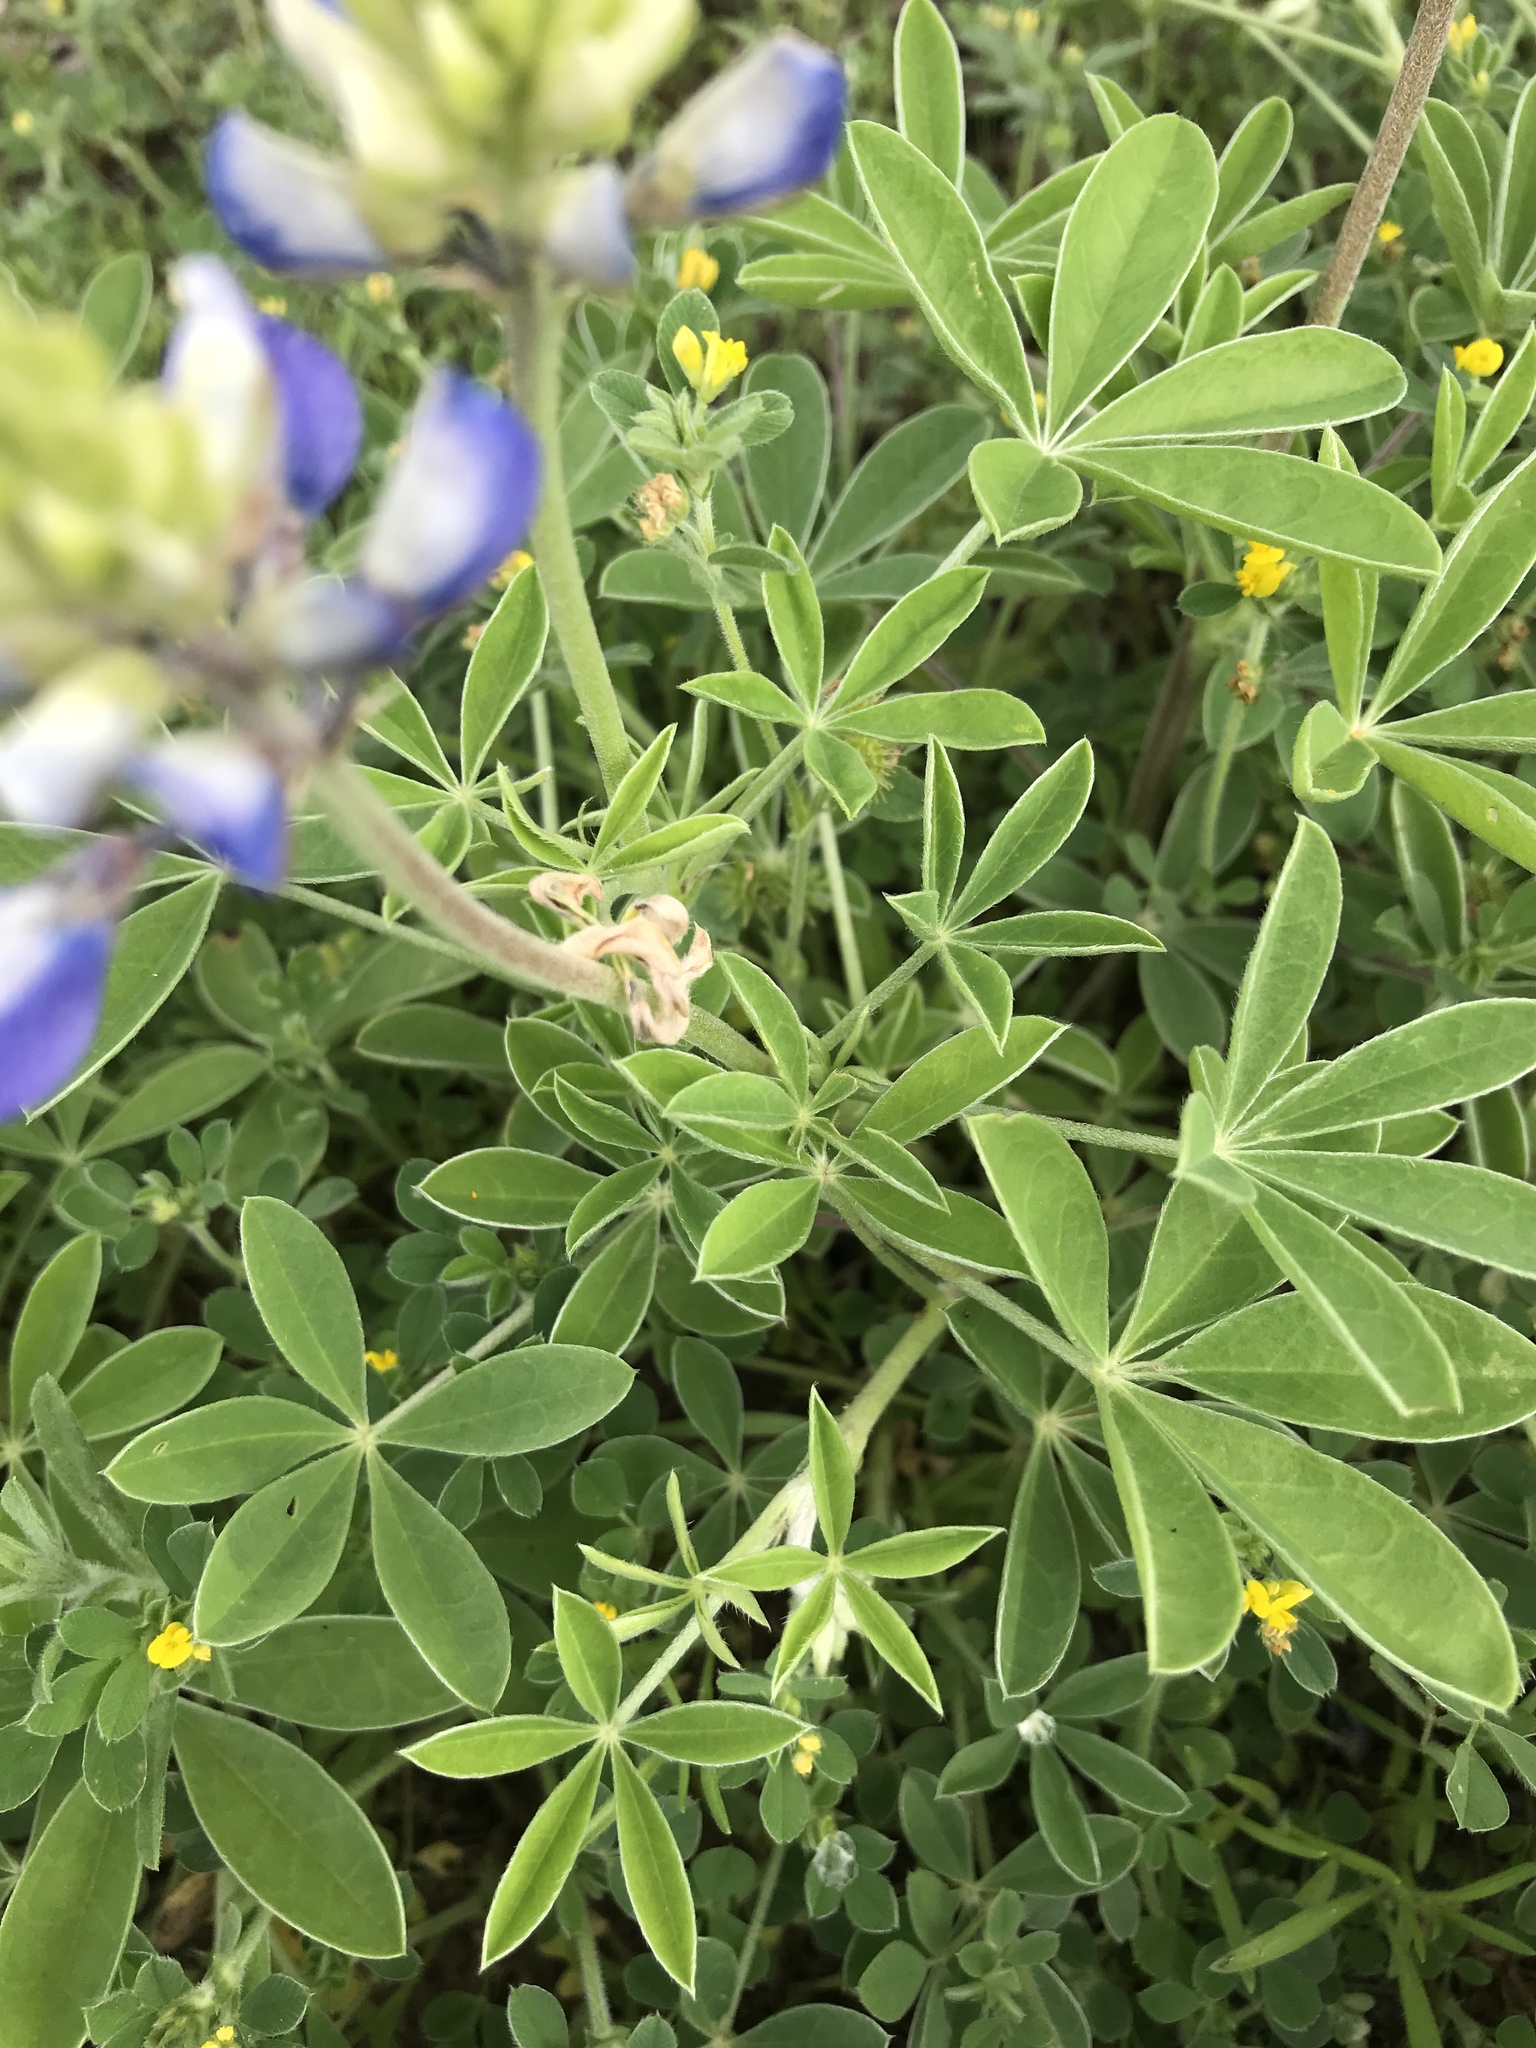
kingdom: Plantae
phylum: Tracheophyta
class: Magnoliopsida
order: Fabales
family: Fabaceae
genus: Lupinus
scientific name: Lupinus texensis
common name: Texas bluebonnet
